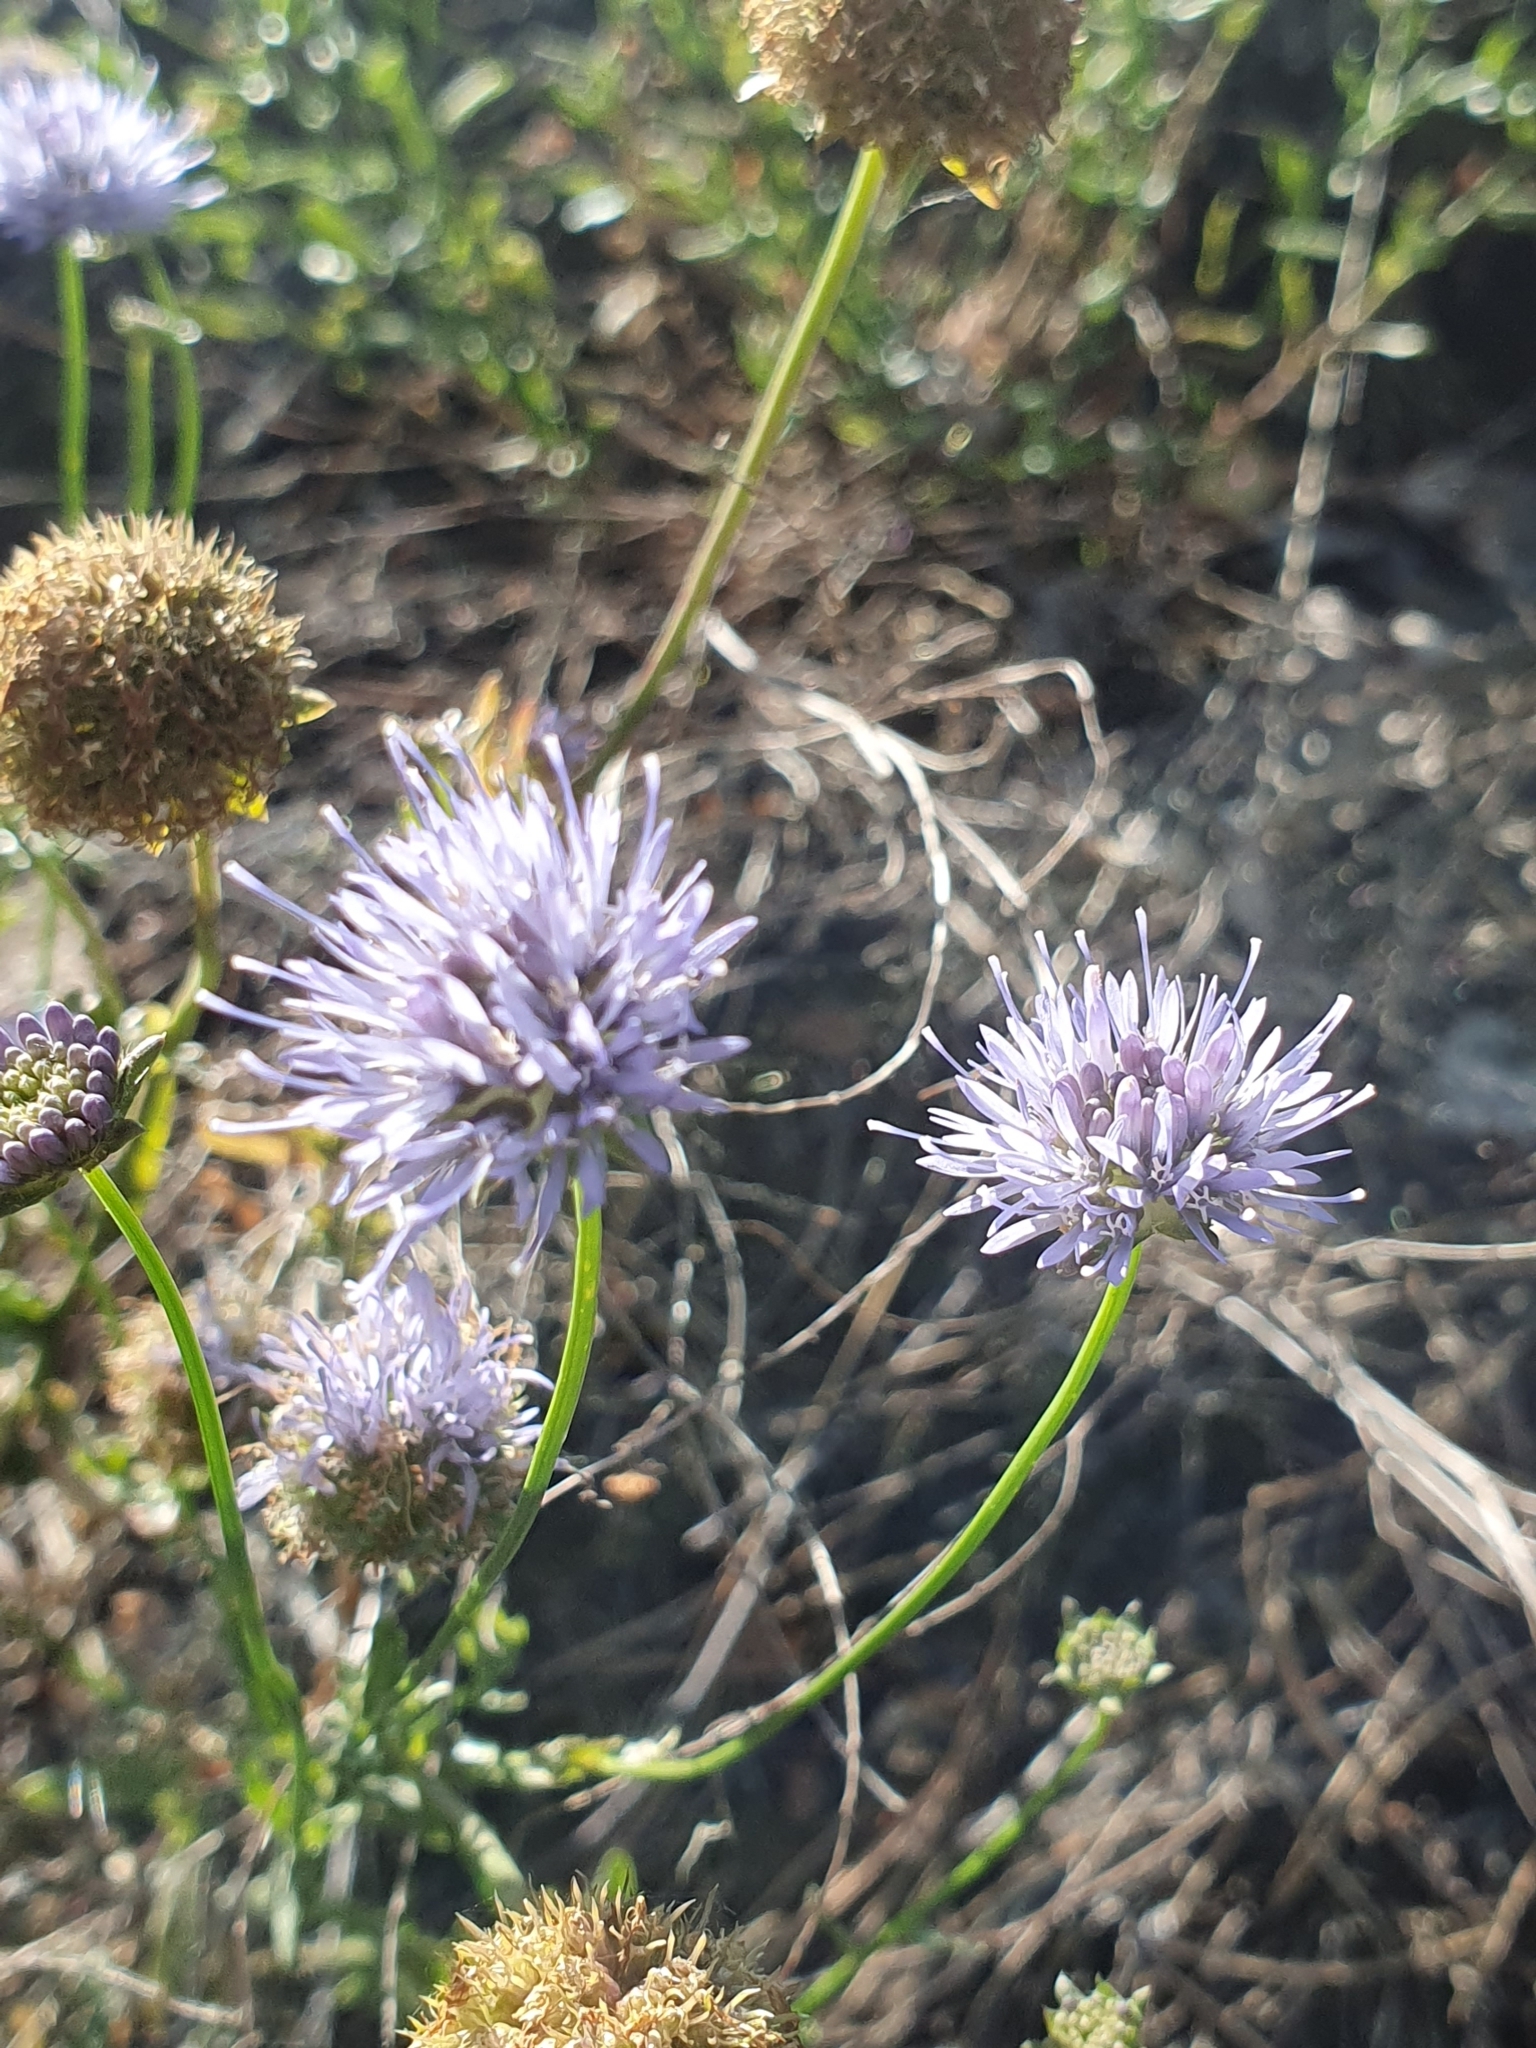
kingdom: Plantae
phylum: Tracheophyta
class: Magnoliopsida
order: Asterales
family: Campanulaceae
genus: Jasione
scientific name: Jasione montana
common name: Sheep's-bit
